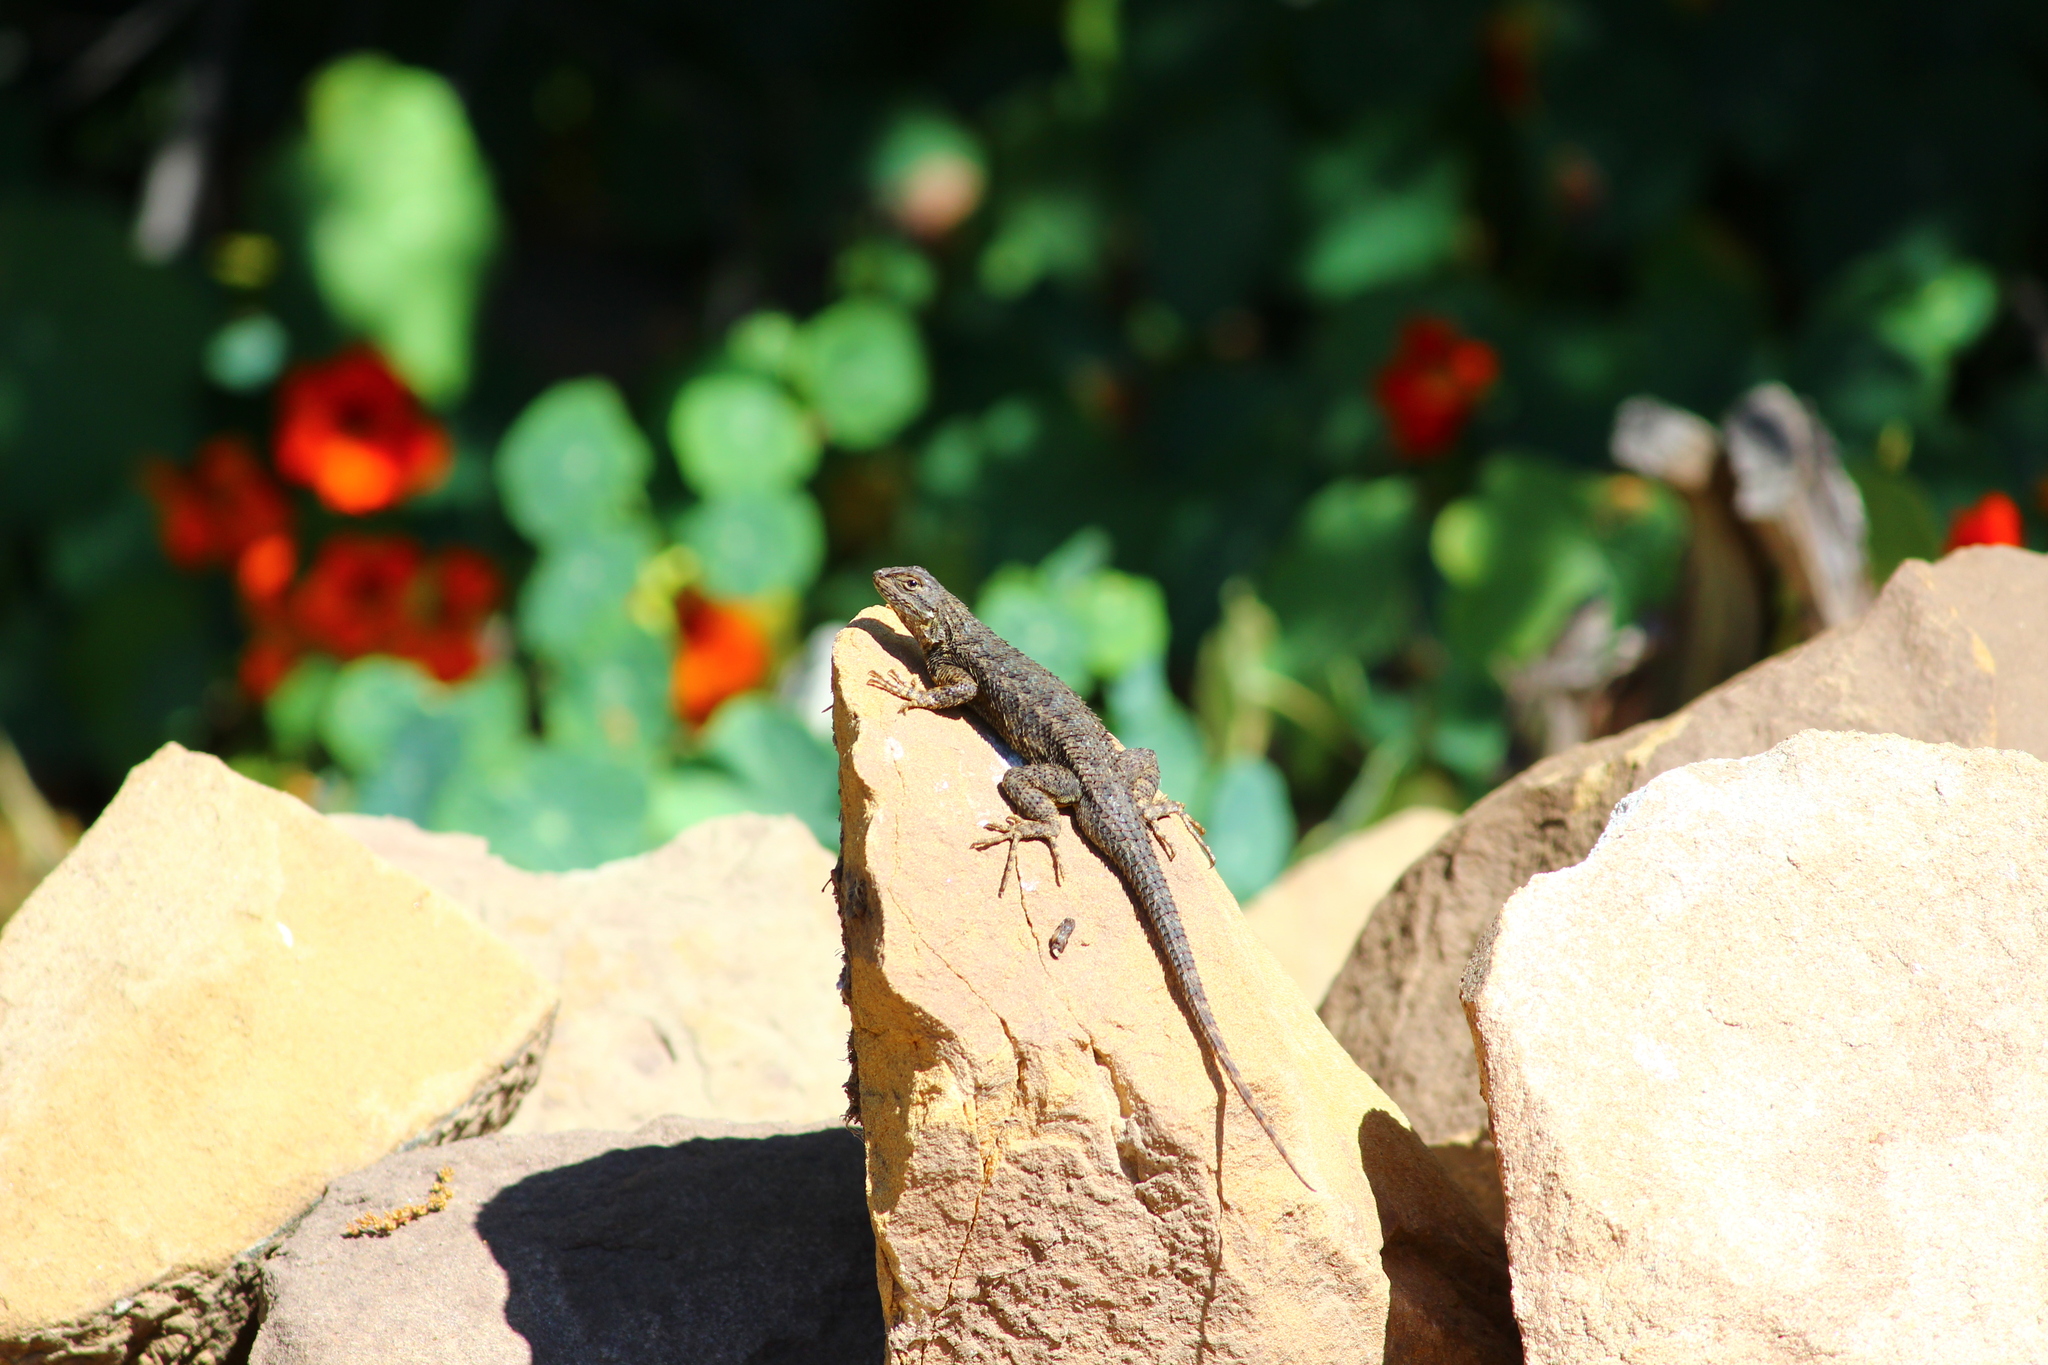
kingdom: Animalia
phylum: Chordata
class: Squamata
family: Phrynosomatidae
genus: Sceloporus
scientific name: Sceloporus occidentalis
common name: Western fence lizard
